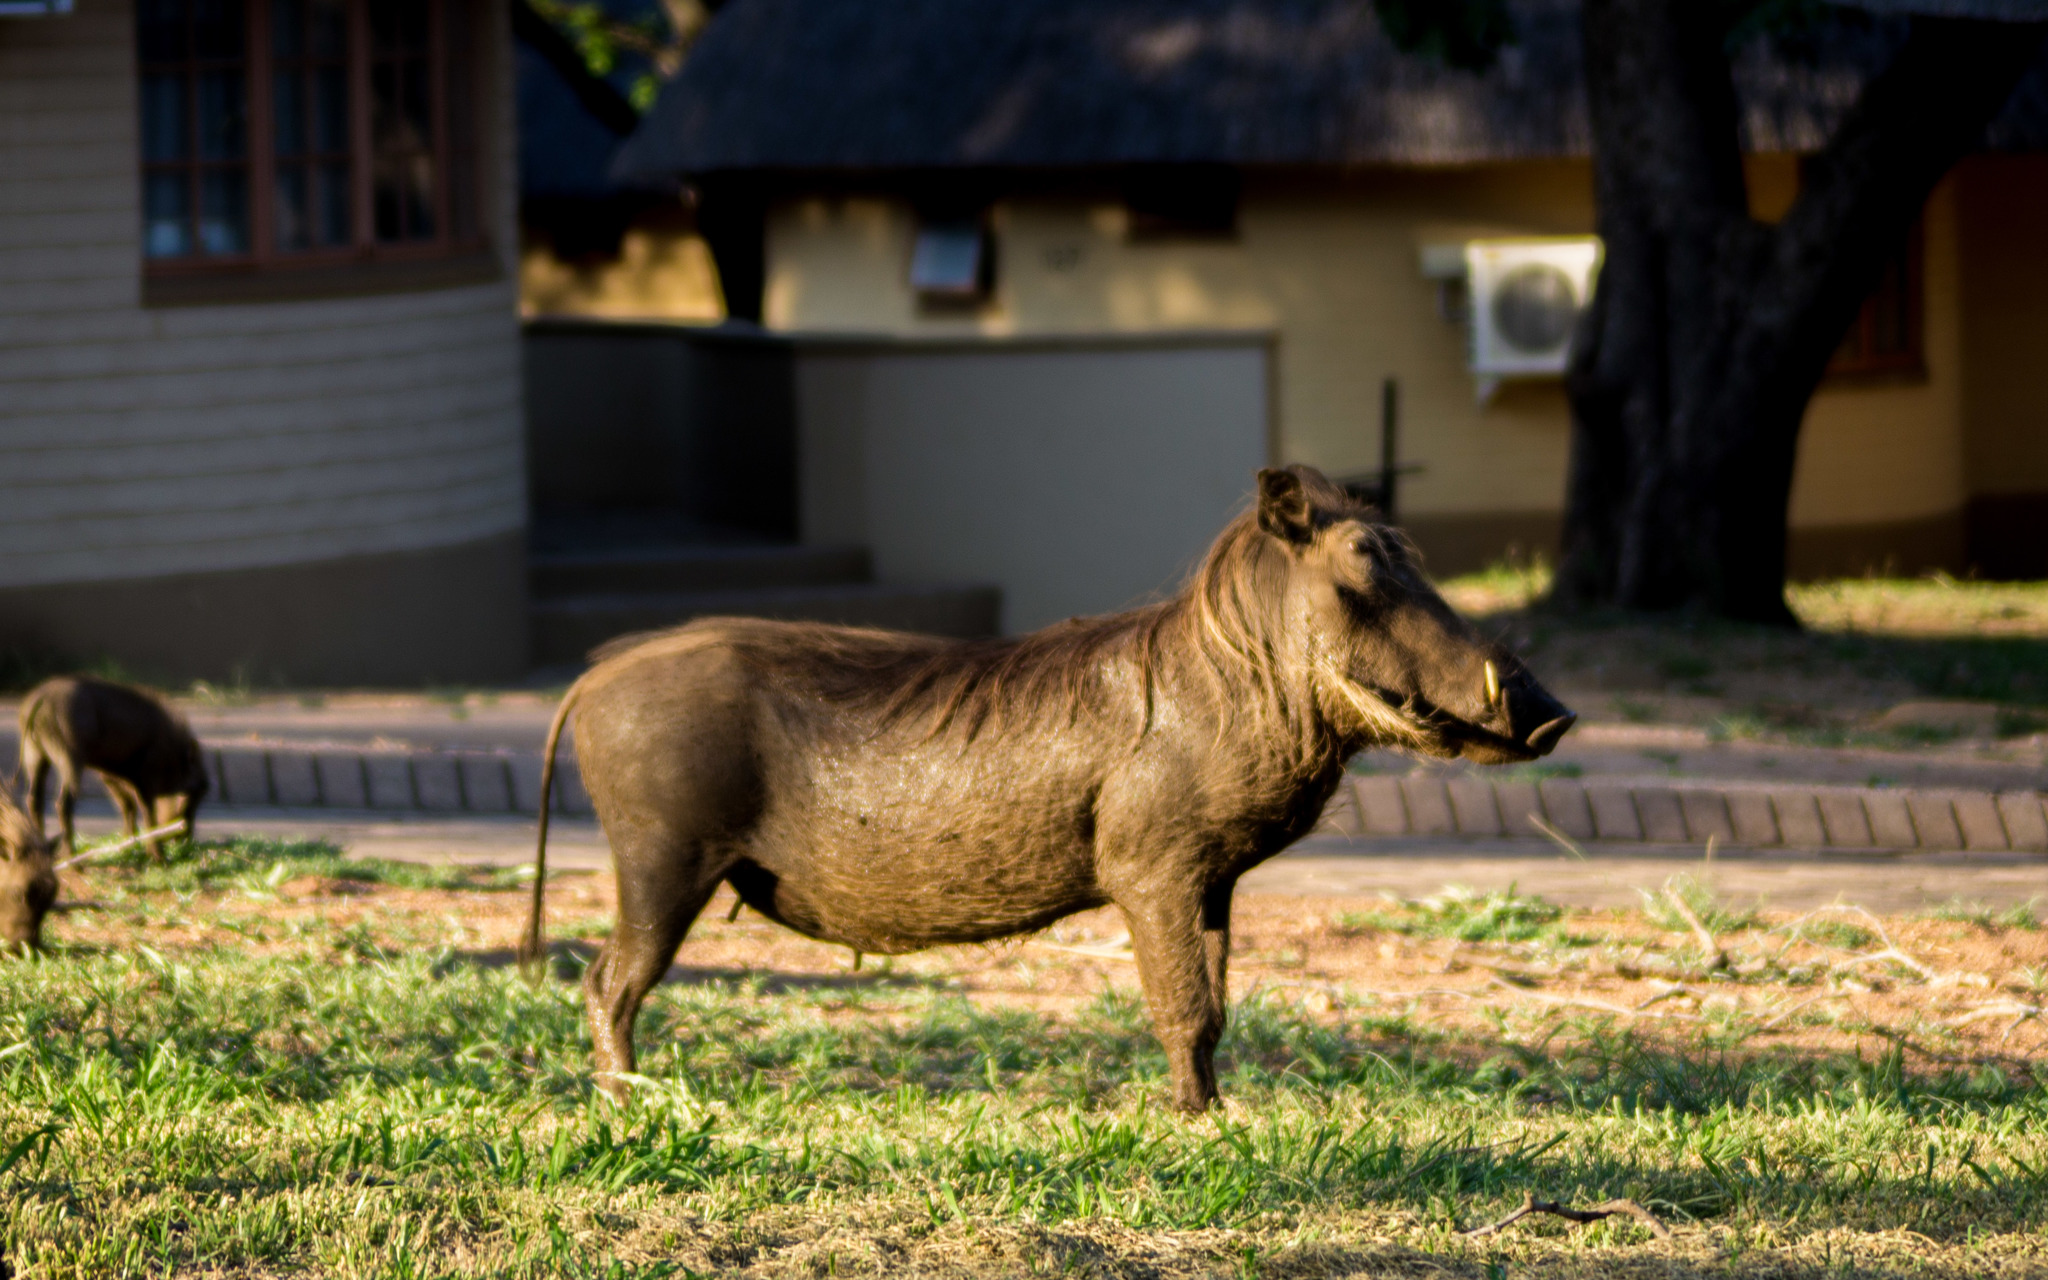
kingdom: Animalia
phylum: Chordata
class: Mammalia
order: Artiodactyla
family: Suidae
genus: Phacochoerus
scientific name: Phacochoerus africanus
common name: Common warthog
